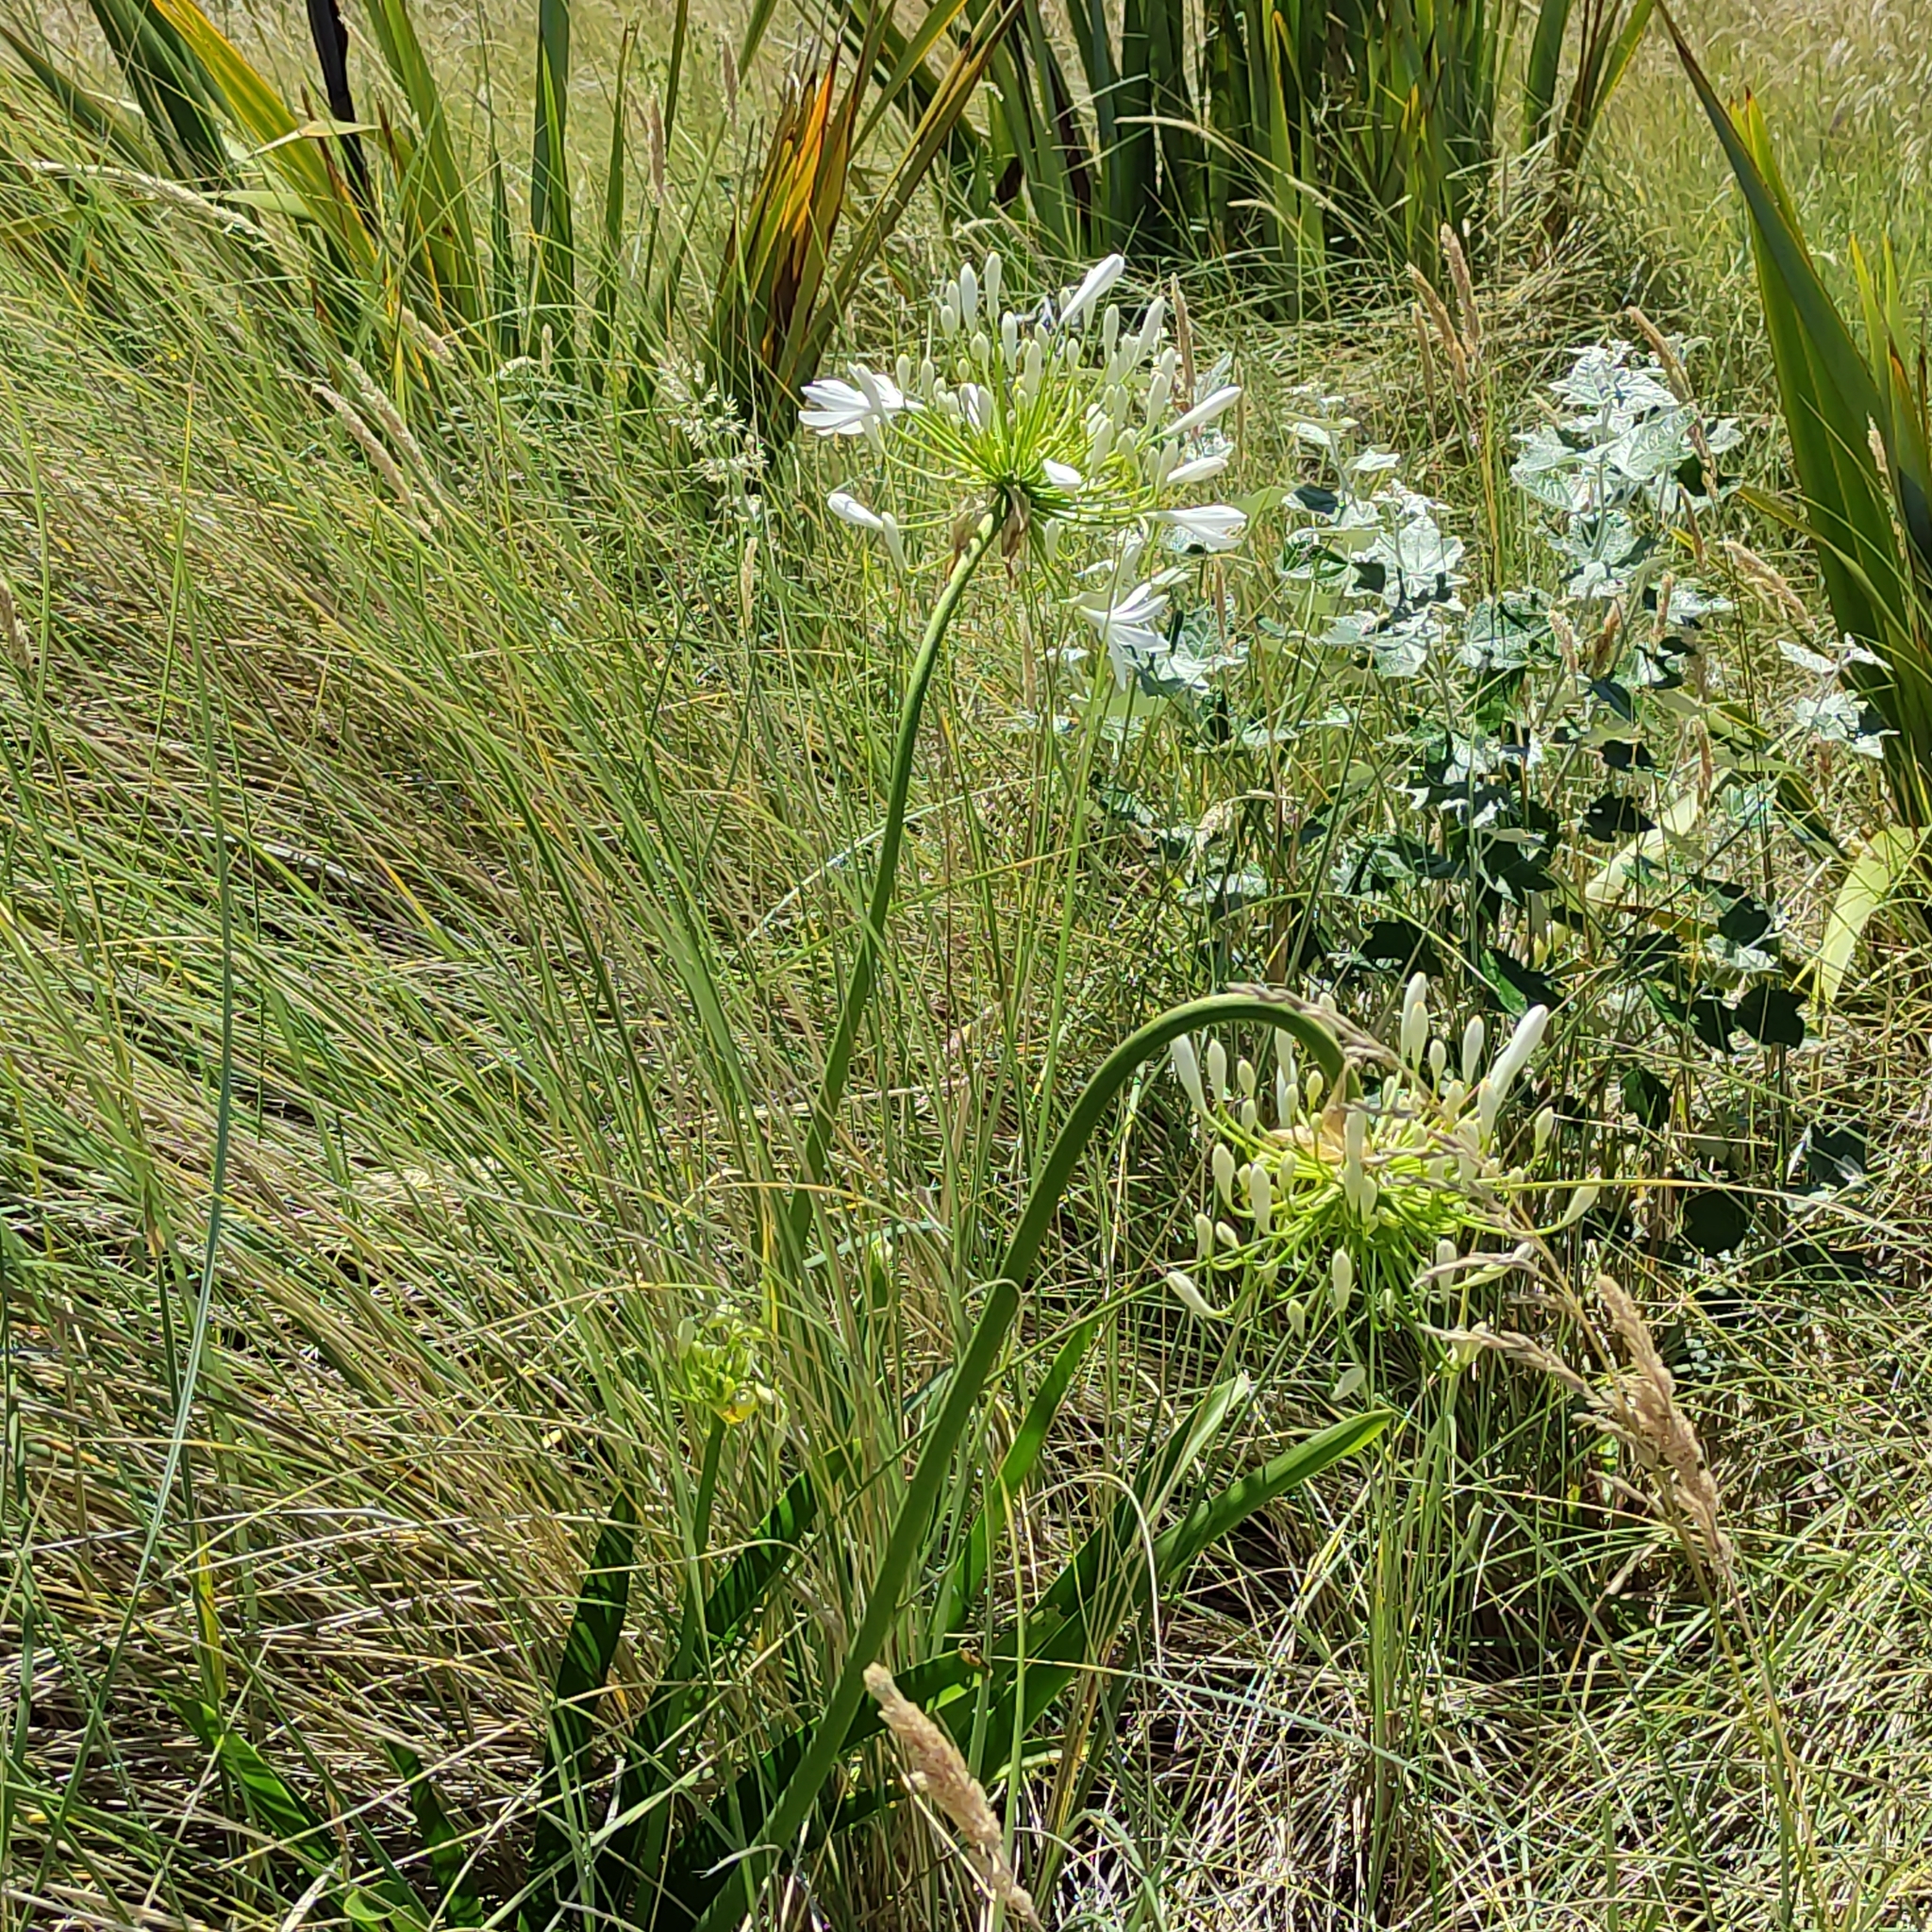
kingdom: Plantae
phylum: Tracheophyta
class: Liliopsida
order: Asparagales
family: Amaryllidaceae
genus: Agapanthus
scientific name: Agapanthus praecox
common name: African-lily
